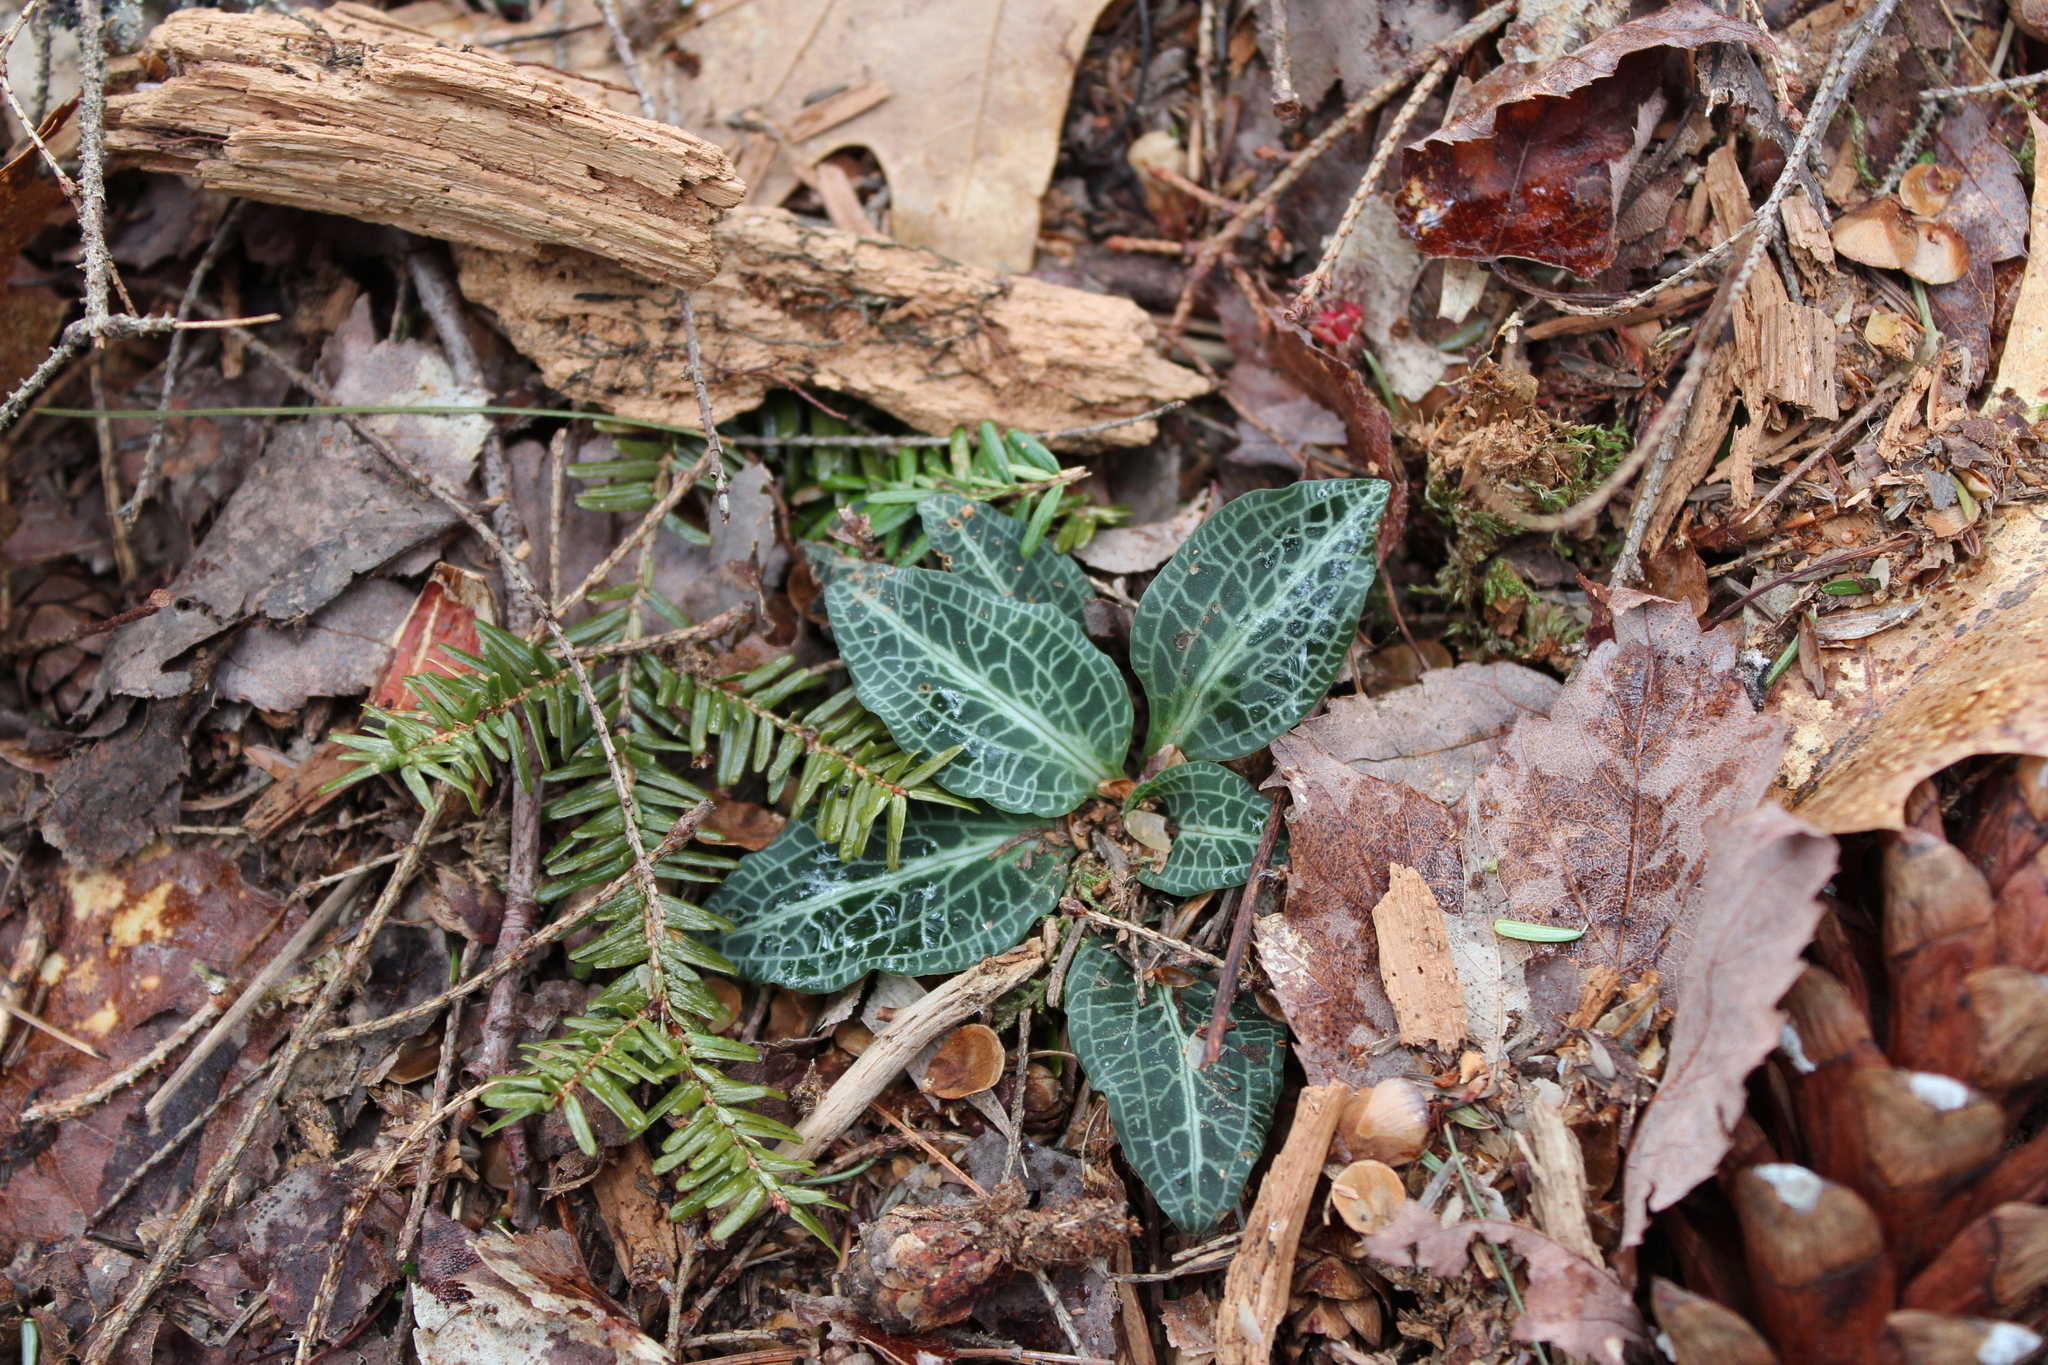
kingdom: Plantae
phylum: Tracheophyta
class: Liliopsida
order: Asparagales
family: Orchidaceae
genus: Goodyera
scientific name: Goodyera pubescens
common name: Downy rattlesnake-plantain
